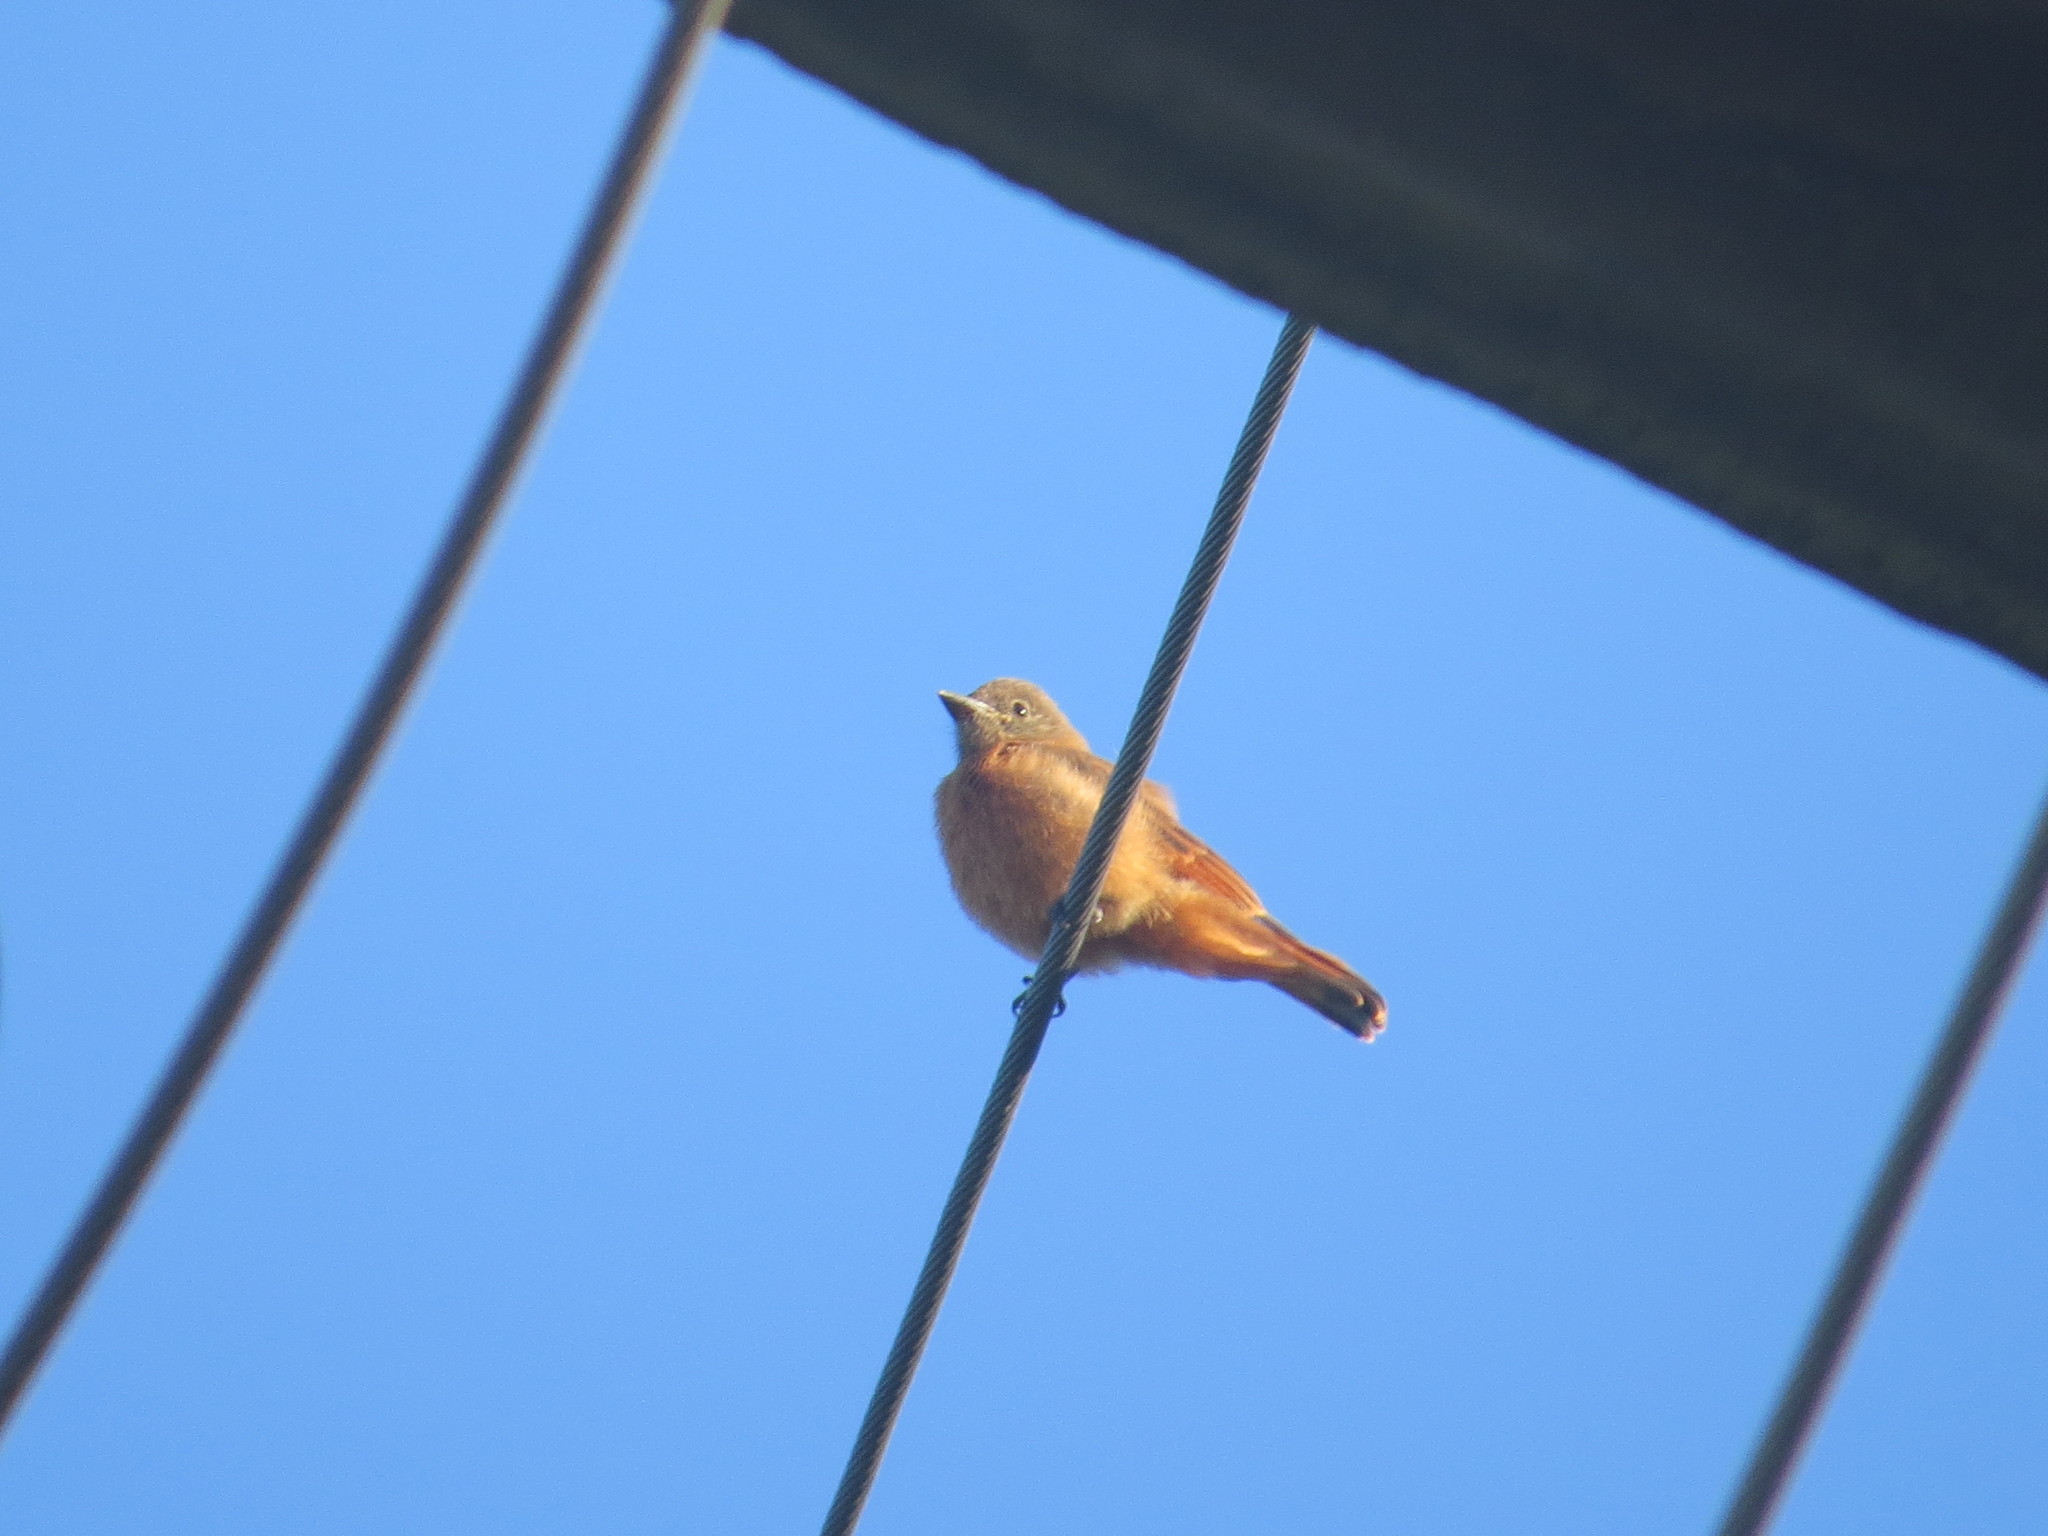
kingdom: Animalia
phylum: Chordata
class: Aves
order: Passeriformes
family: Tyrannidae
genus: Hirundinea
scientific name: Hirundinea ferruginea
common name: Cliff flycatcher
